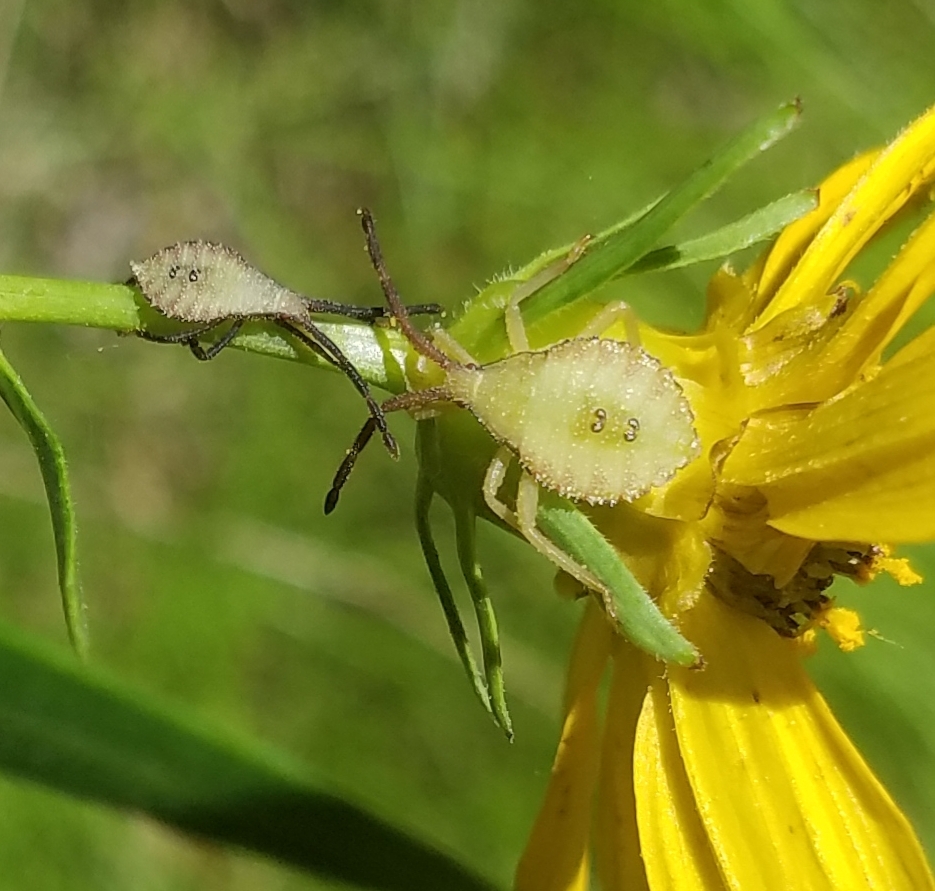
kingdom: Animalia
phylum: Arthropoda
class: Insecta
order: Hemiptera
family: Coreidae
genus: Piezogaster
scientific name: Piezogaster calcarator
